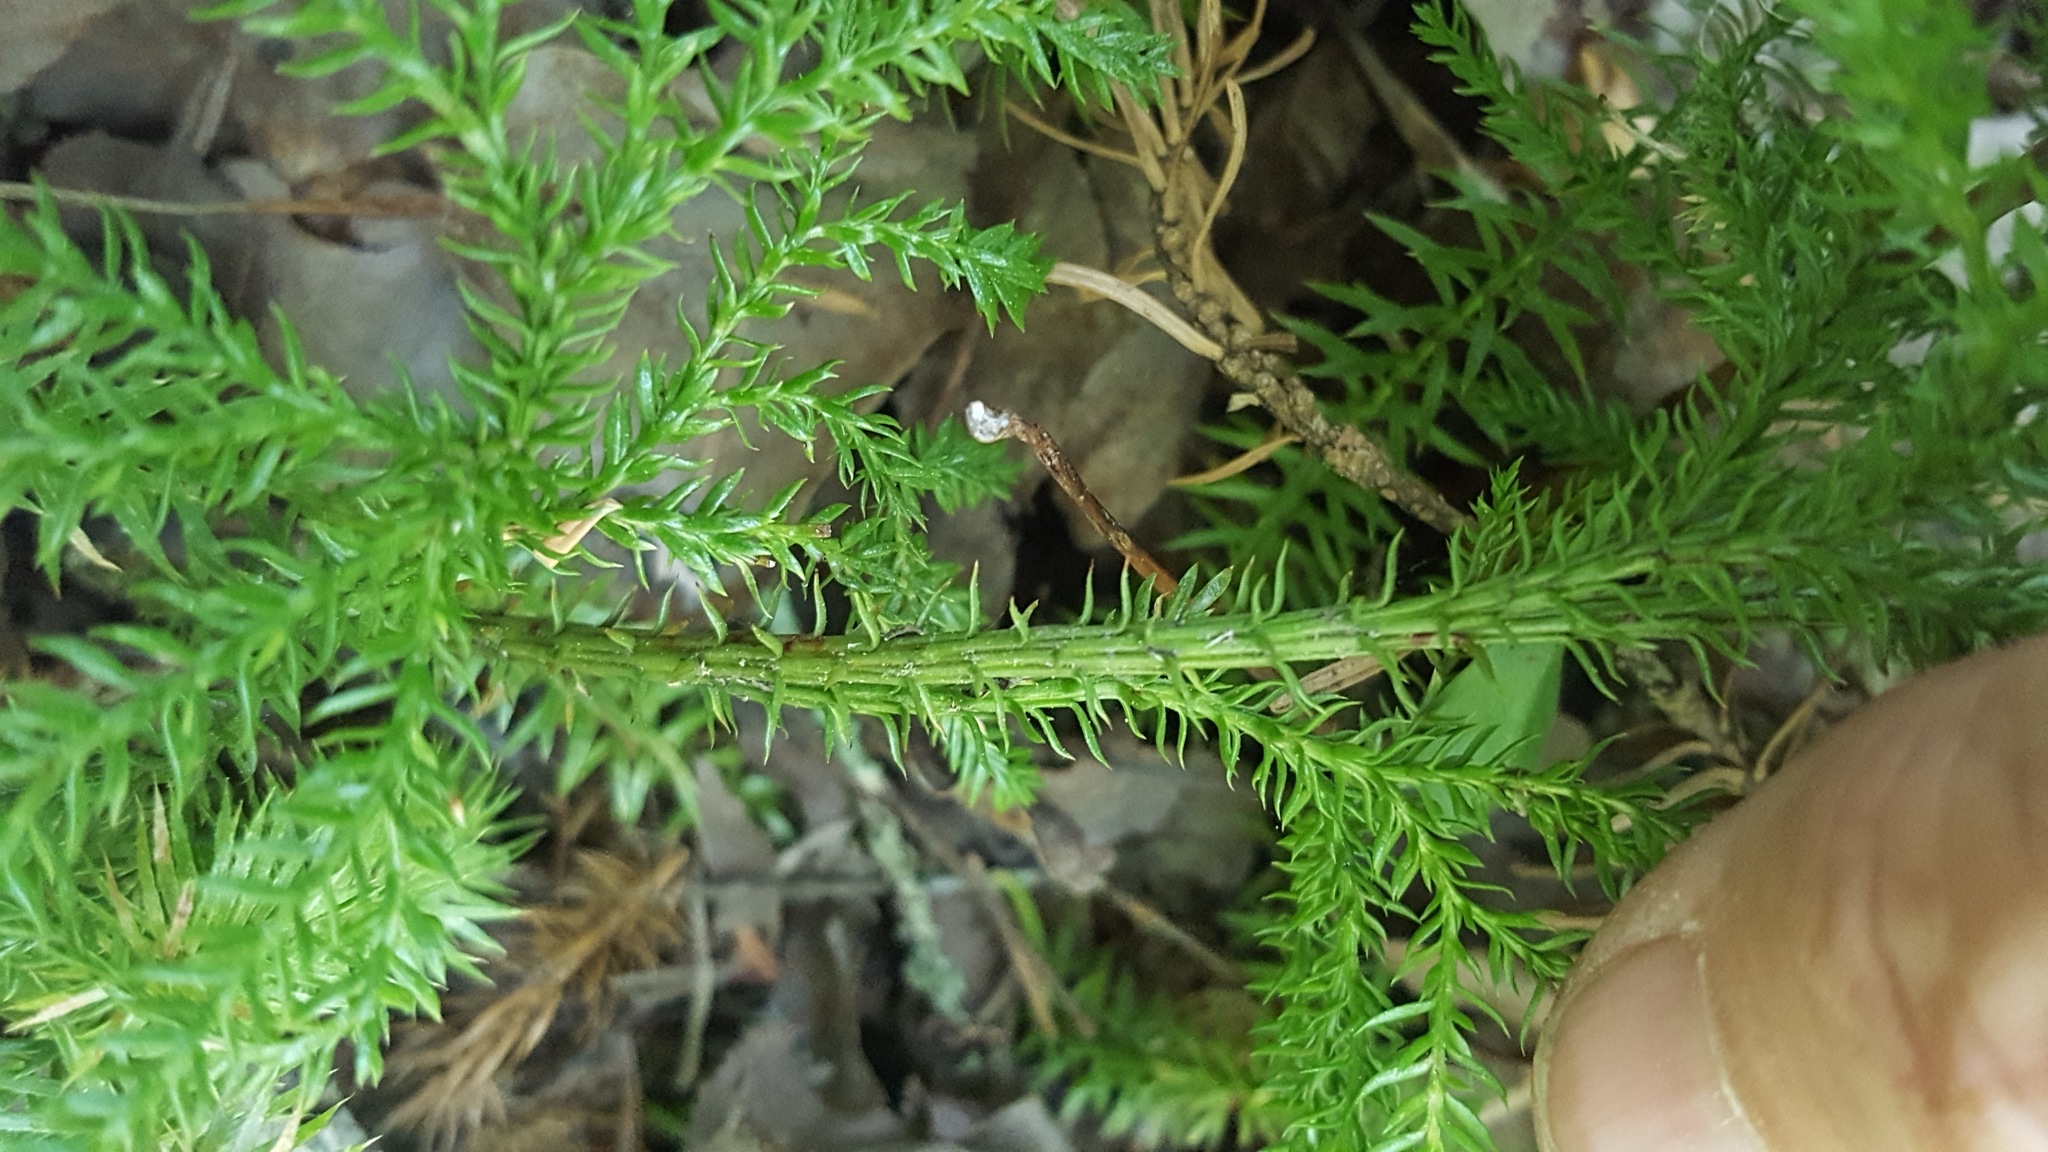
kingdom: Plantae
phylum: Tracheophyta
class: Lycopodiopsida
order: Lycopodiales
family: Lycopodiaceae
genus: Dendrolycopodium
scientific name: Dendrolycopodium dendroideum
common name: Northern tree-clubmoss
